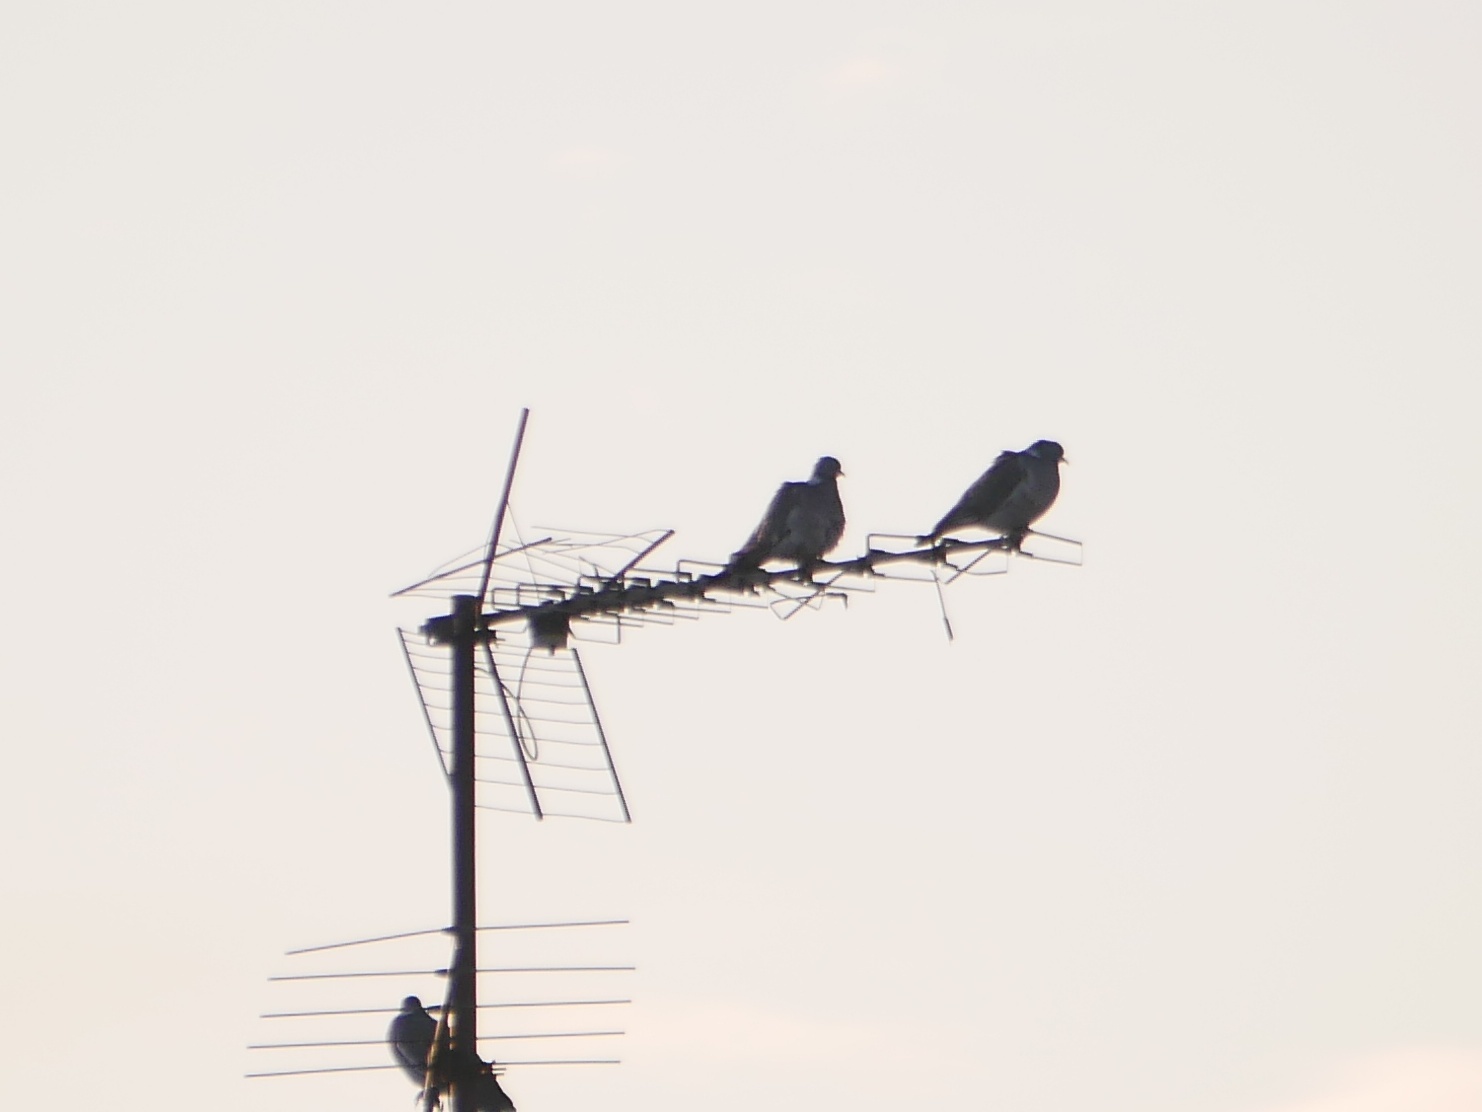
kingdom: Animalia
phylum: Chordata
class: Aves
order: Columbiformes
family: Columbidae
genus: Columba
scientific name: Columba palumbus
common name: Common wood pigeon
